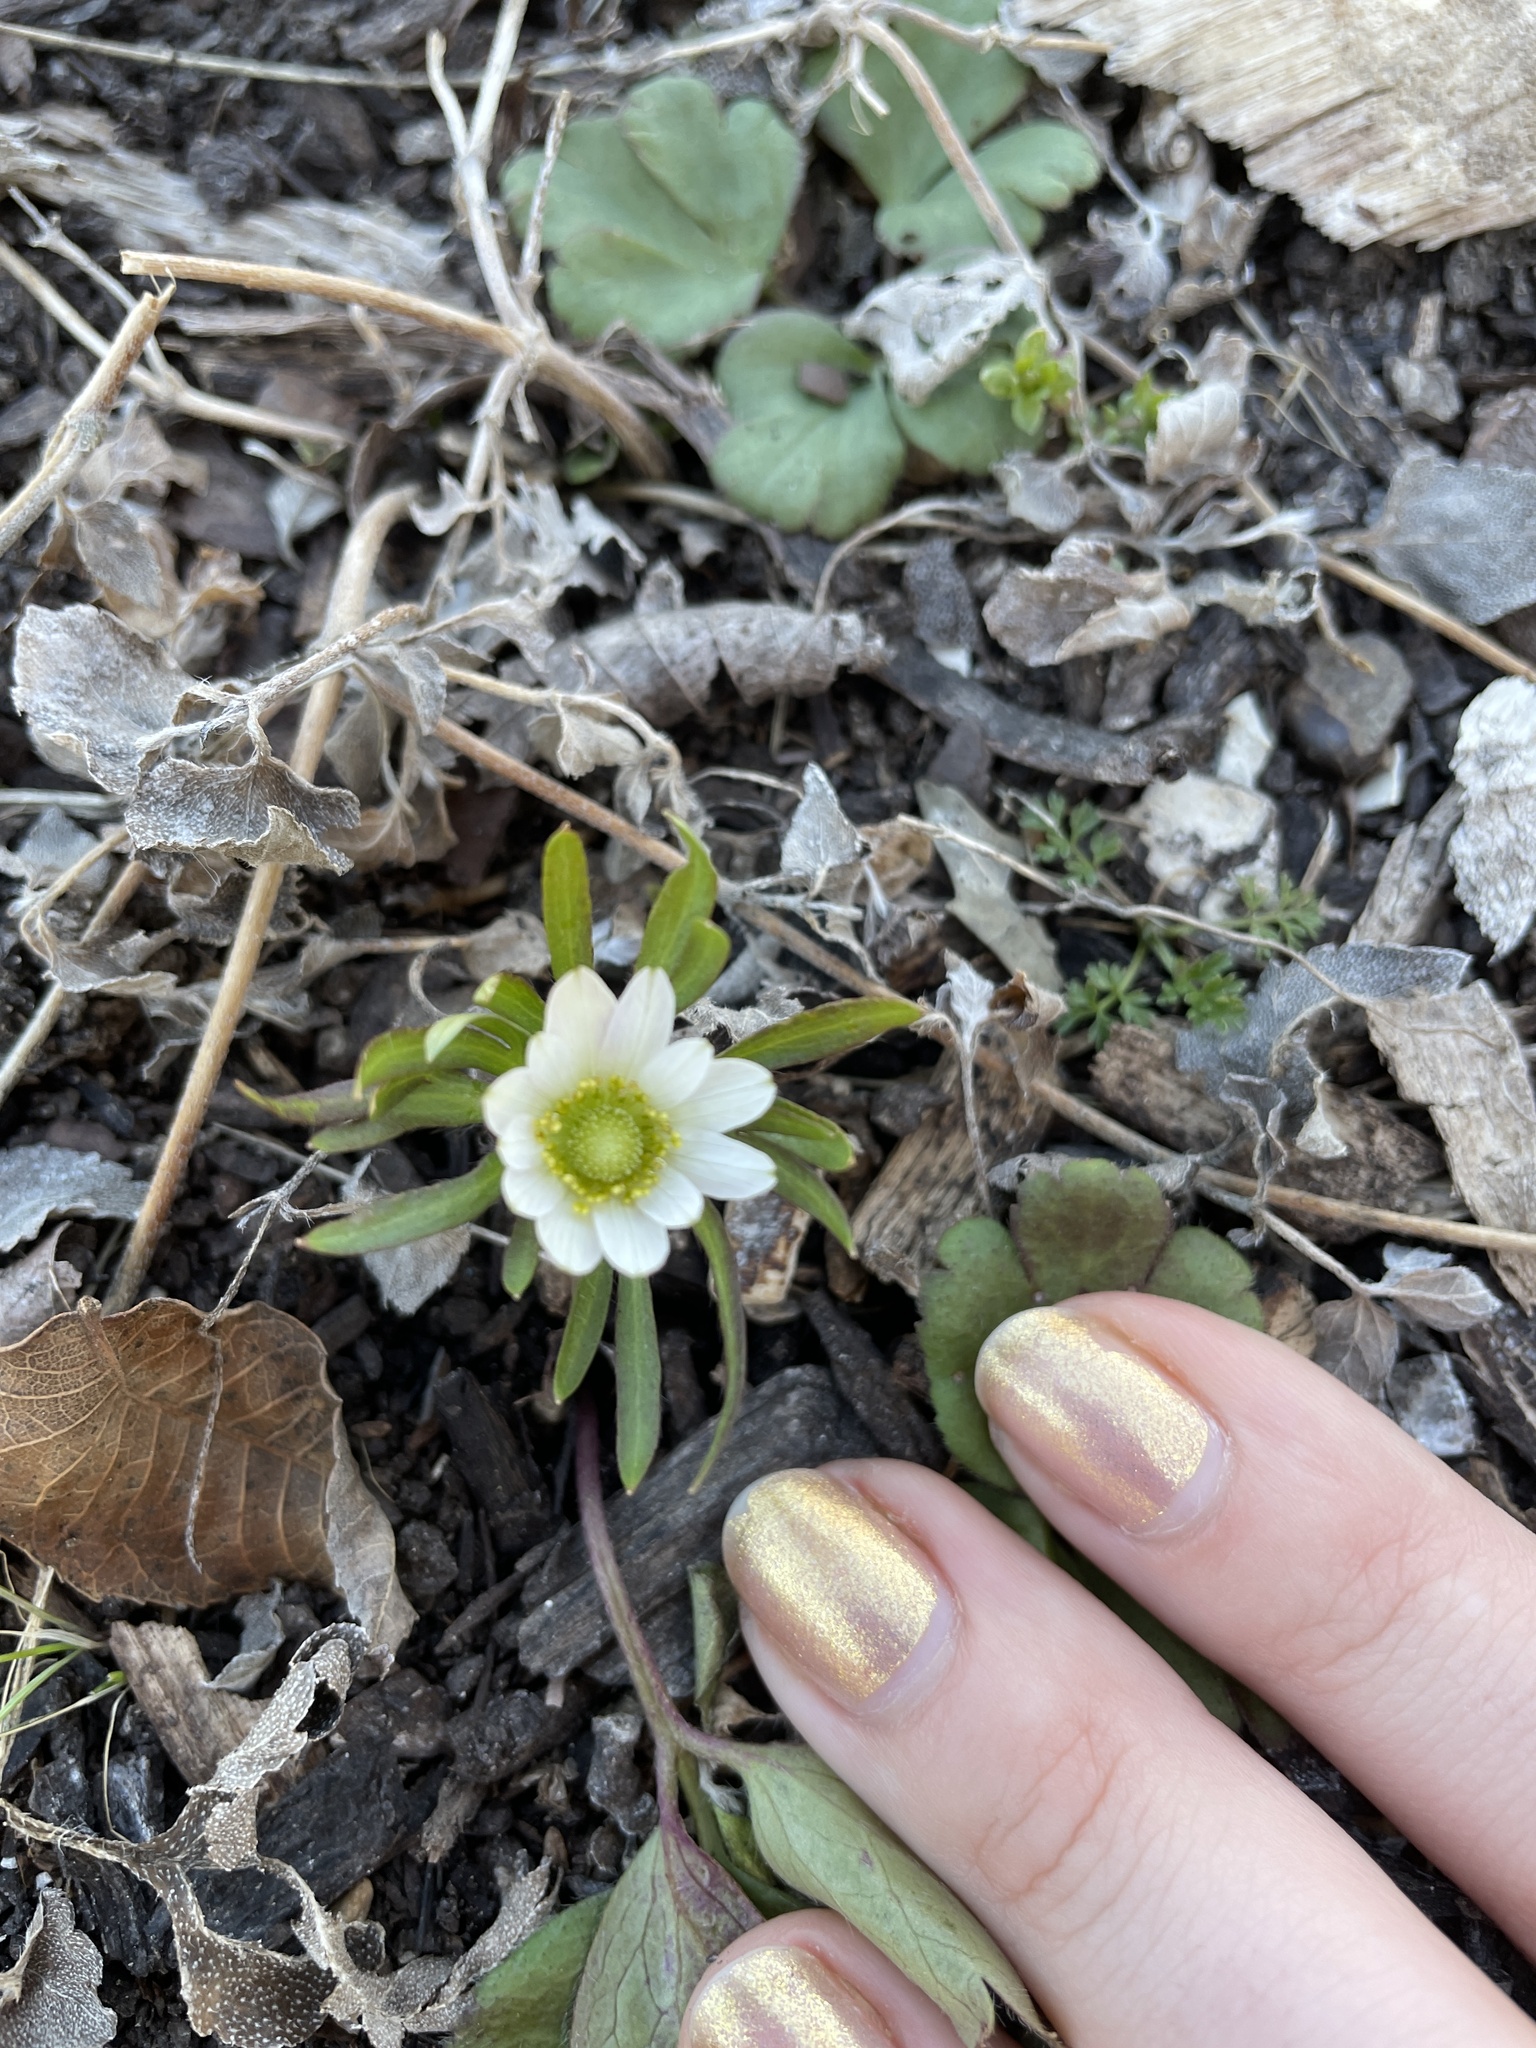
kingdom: Plantae
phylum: Tracheophyta
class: Magnoliopsida
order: Ranunculales
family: Ranunculaceae
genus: Anemone
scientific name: Anemone berlandieri
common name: Ten-petal anemone
